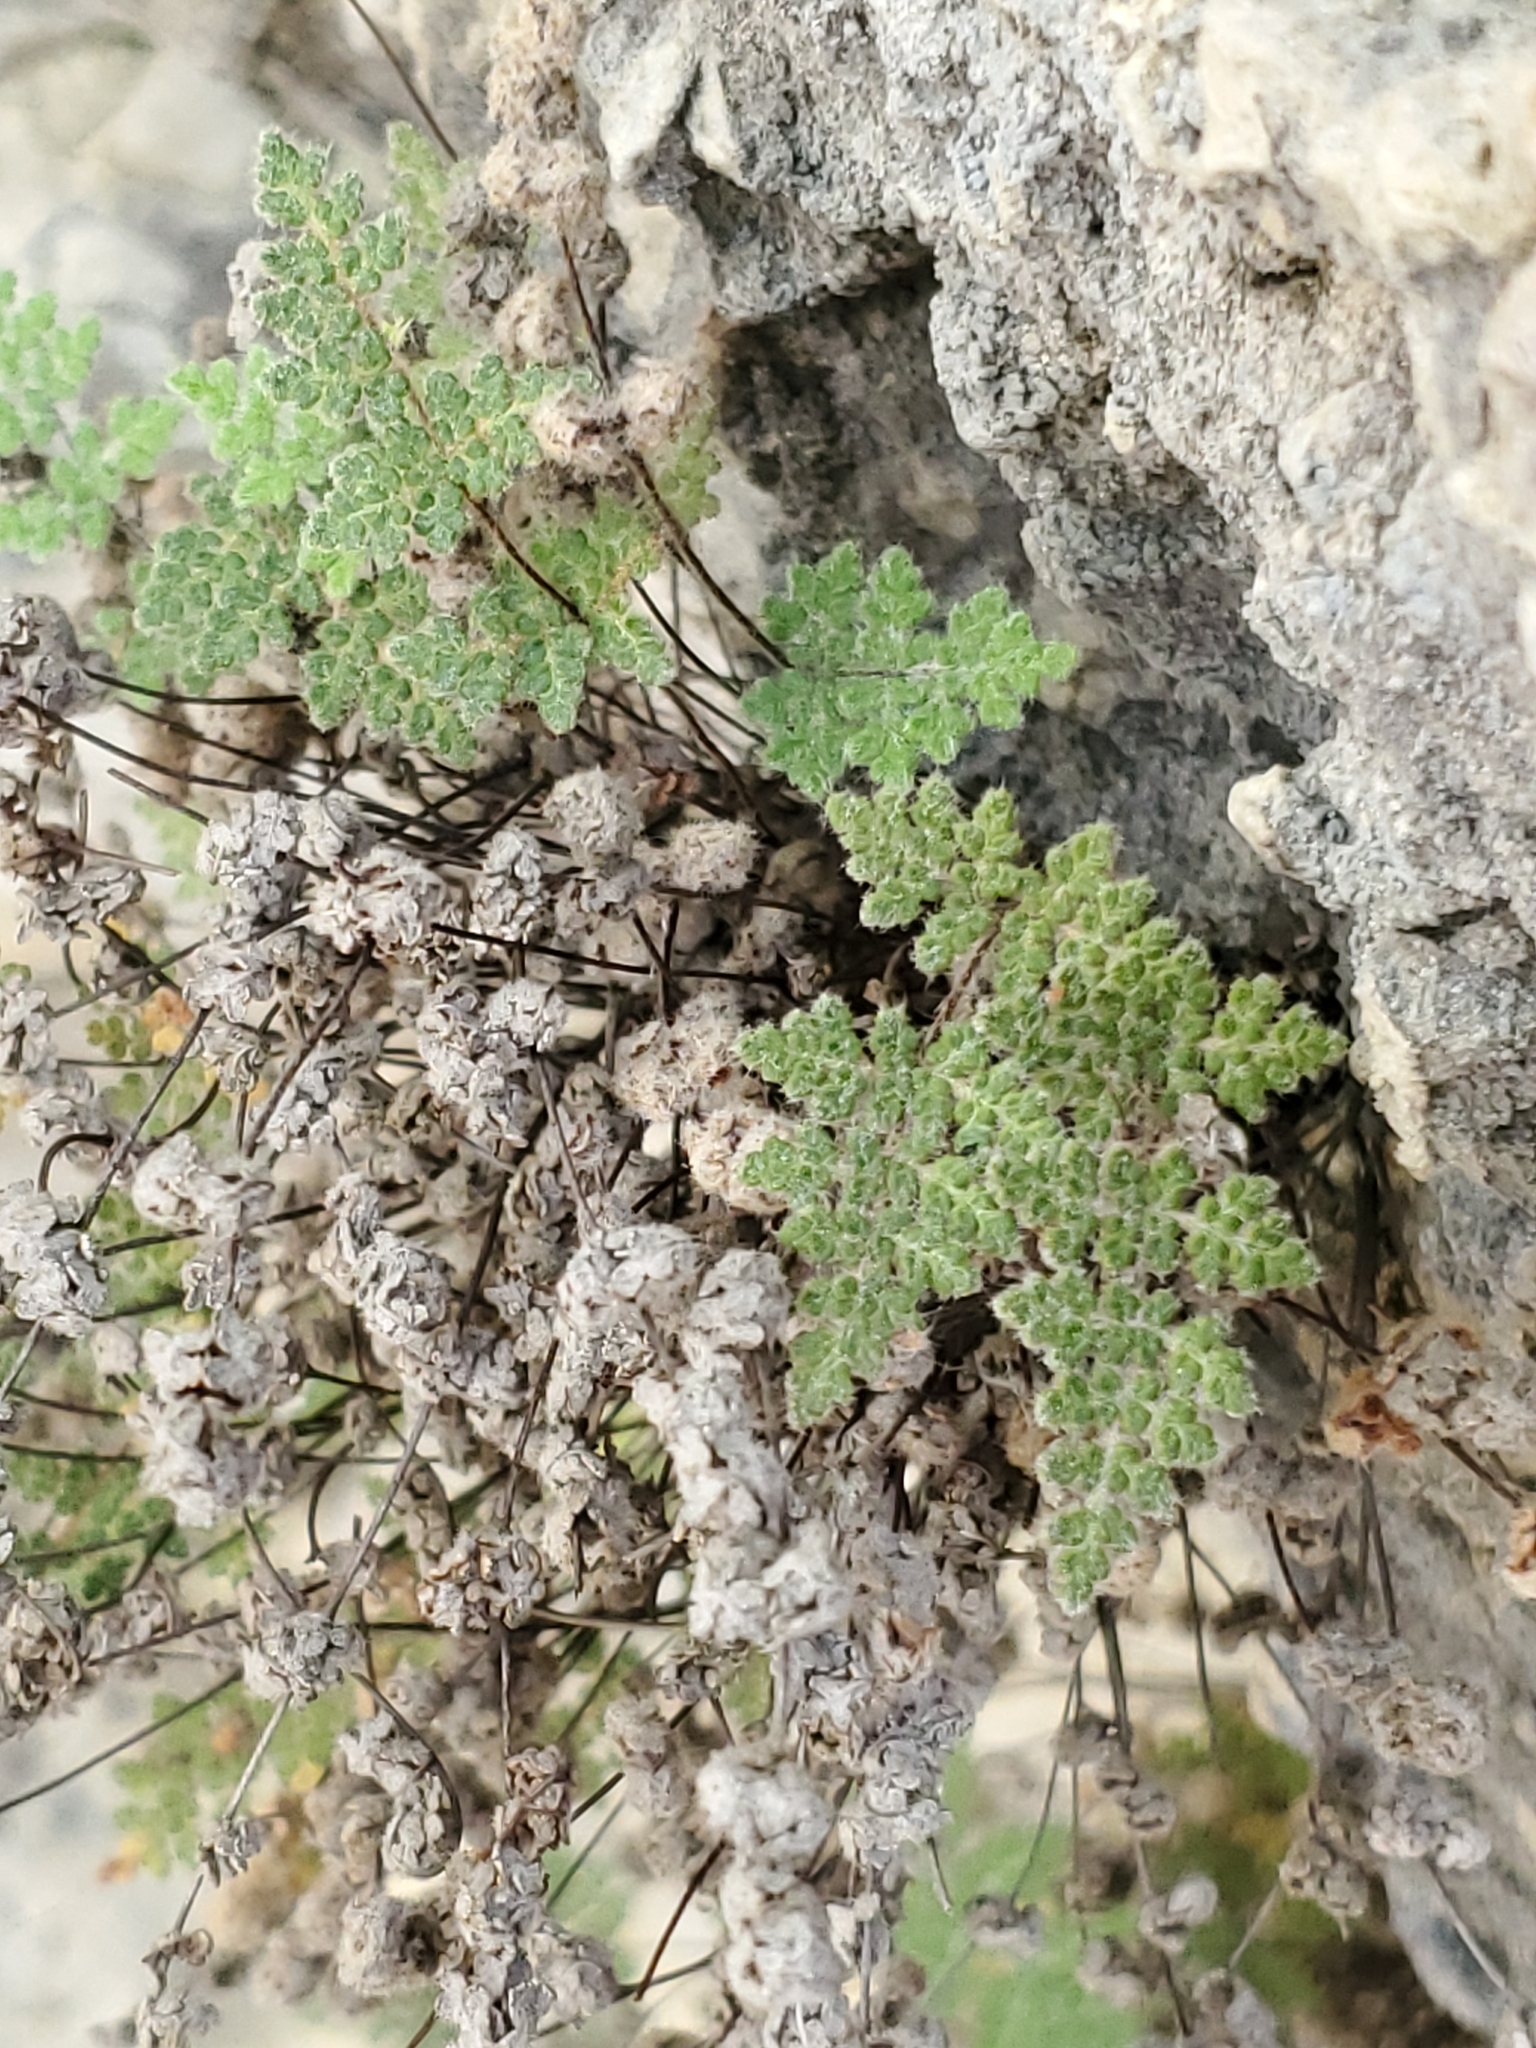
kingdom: Plantae
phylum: Tracheophyta
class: Polypodiopsida
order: Polypodiales
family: Pteridaceae
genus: Myriopteris
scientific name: Myriopteris gracilis
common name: Fee's lip fern
